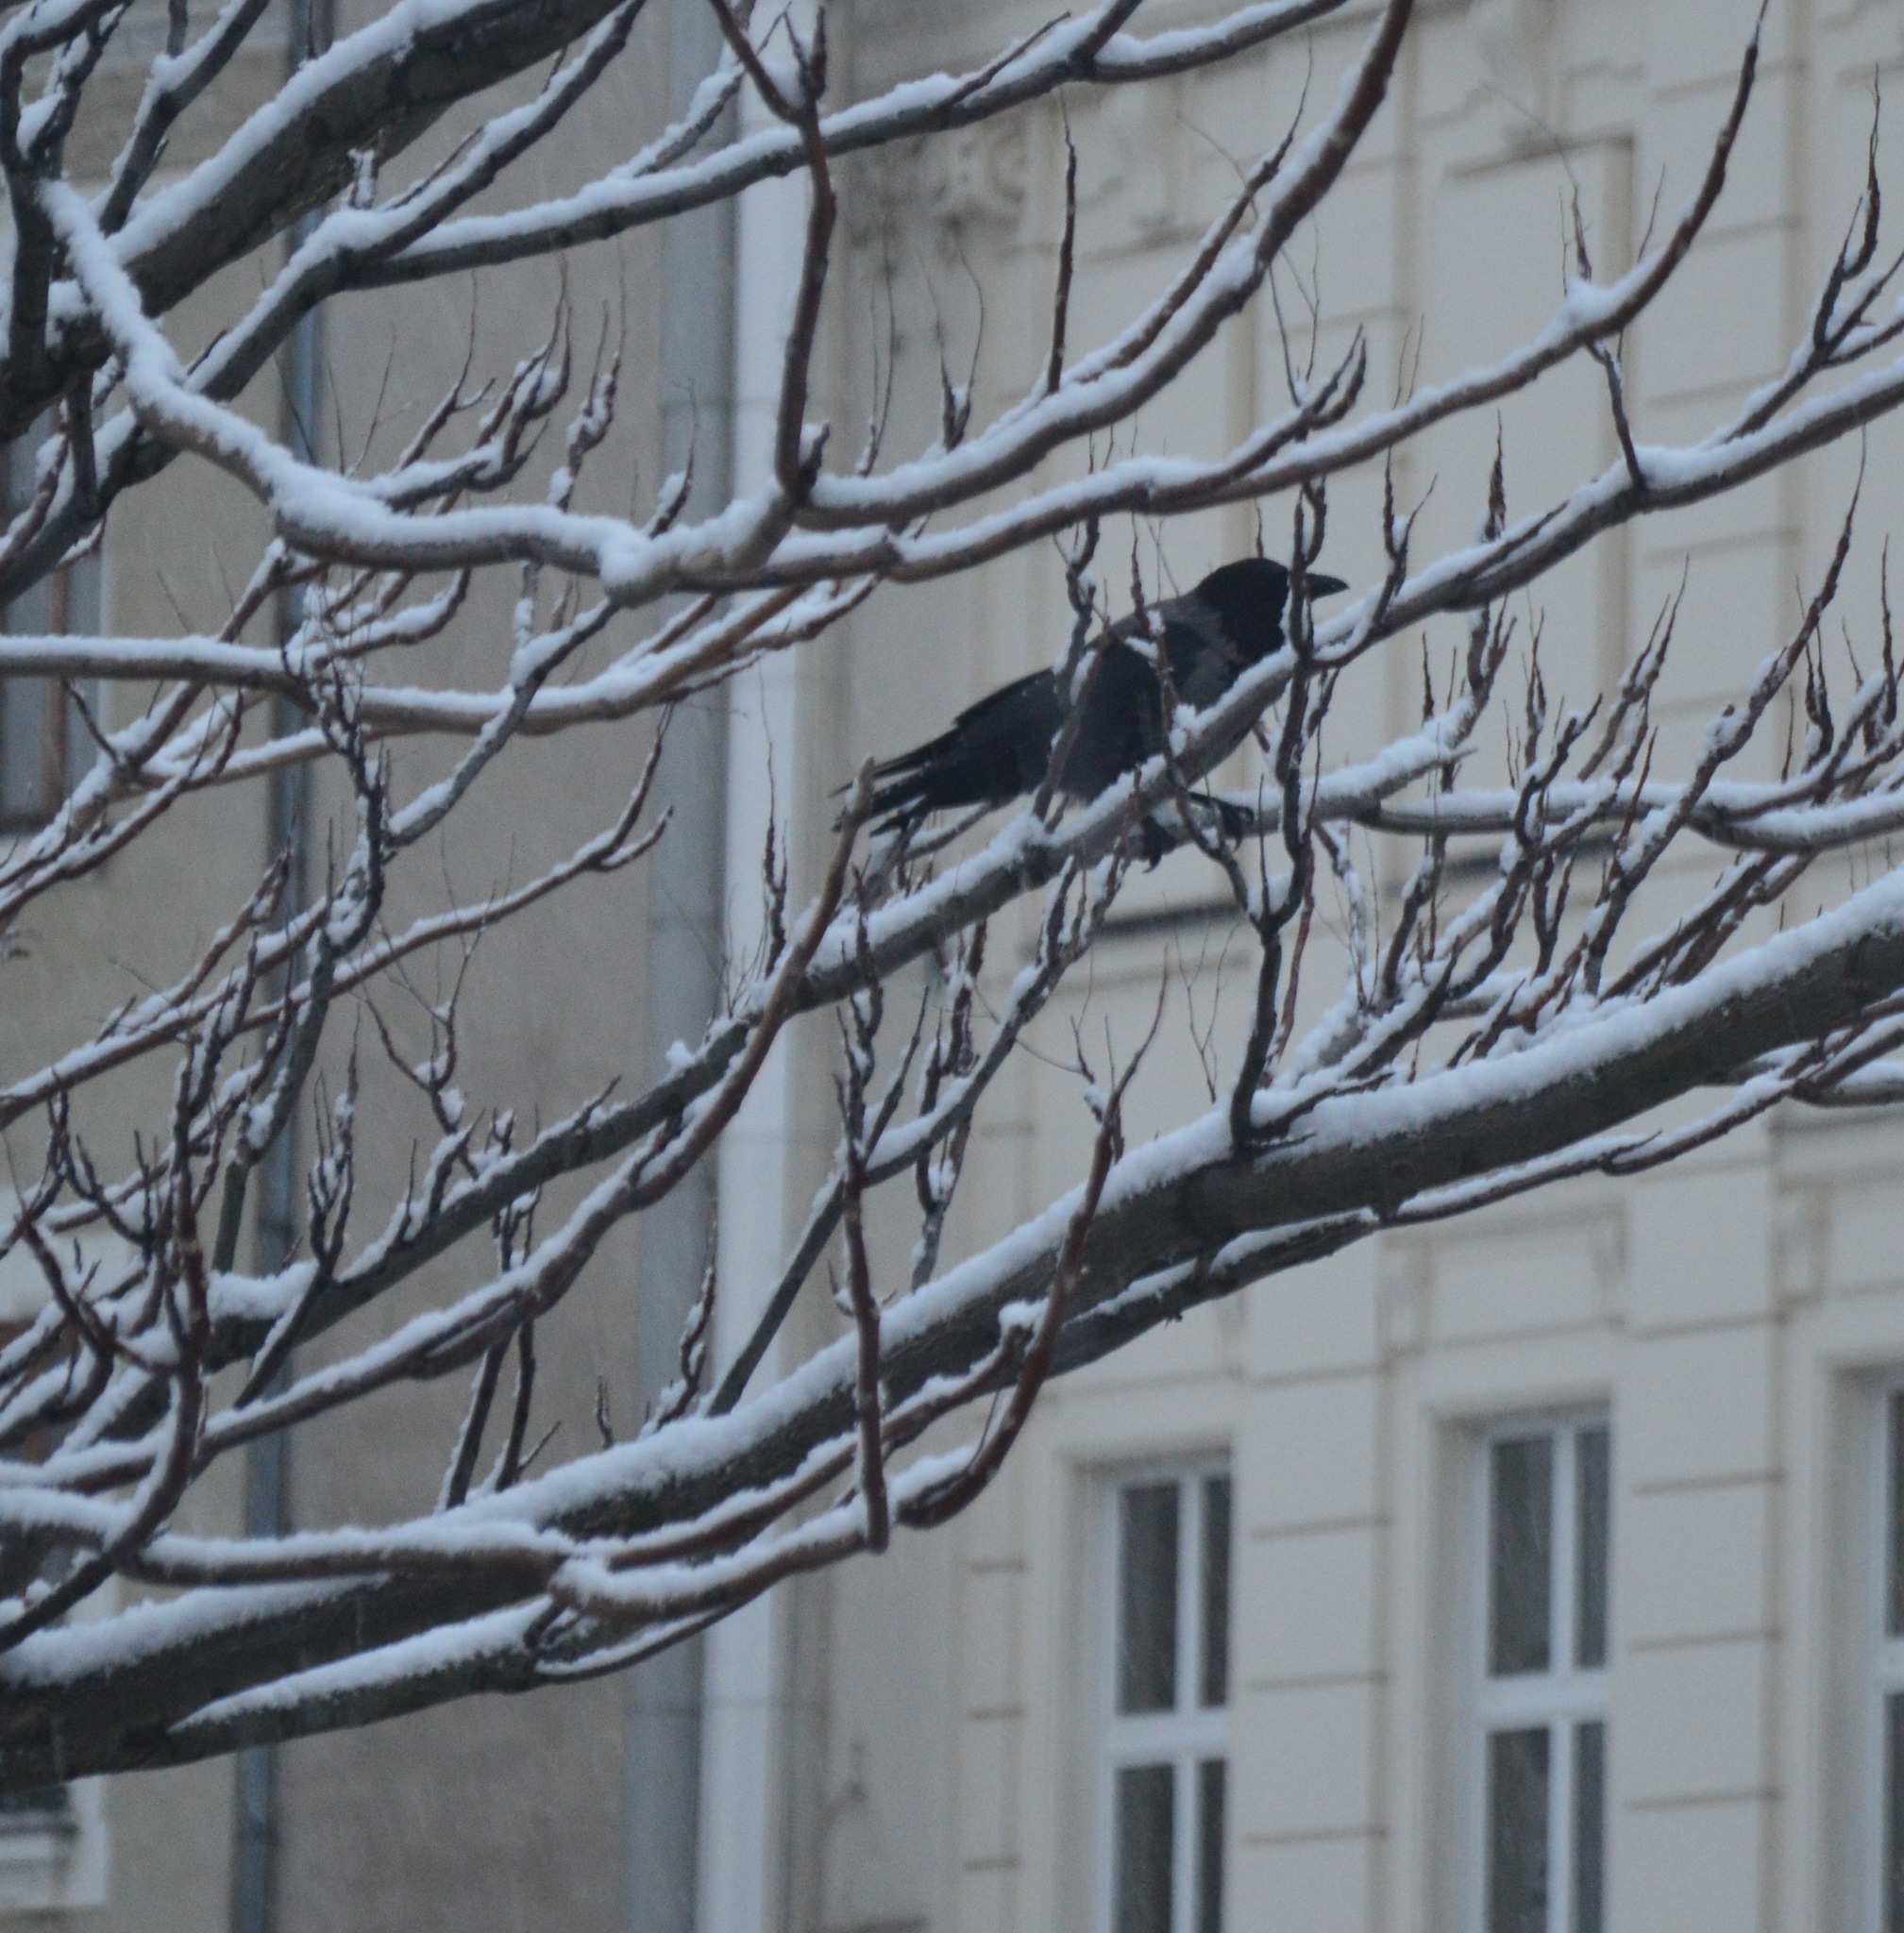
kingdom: Animalia
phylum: Chordata
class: Aves
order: Passeriformes
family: Corvidae
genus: Corvus
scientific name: Corvus cornix
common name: Hooded crow
